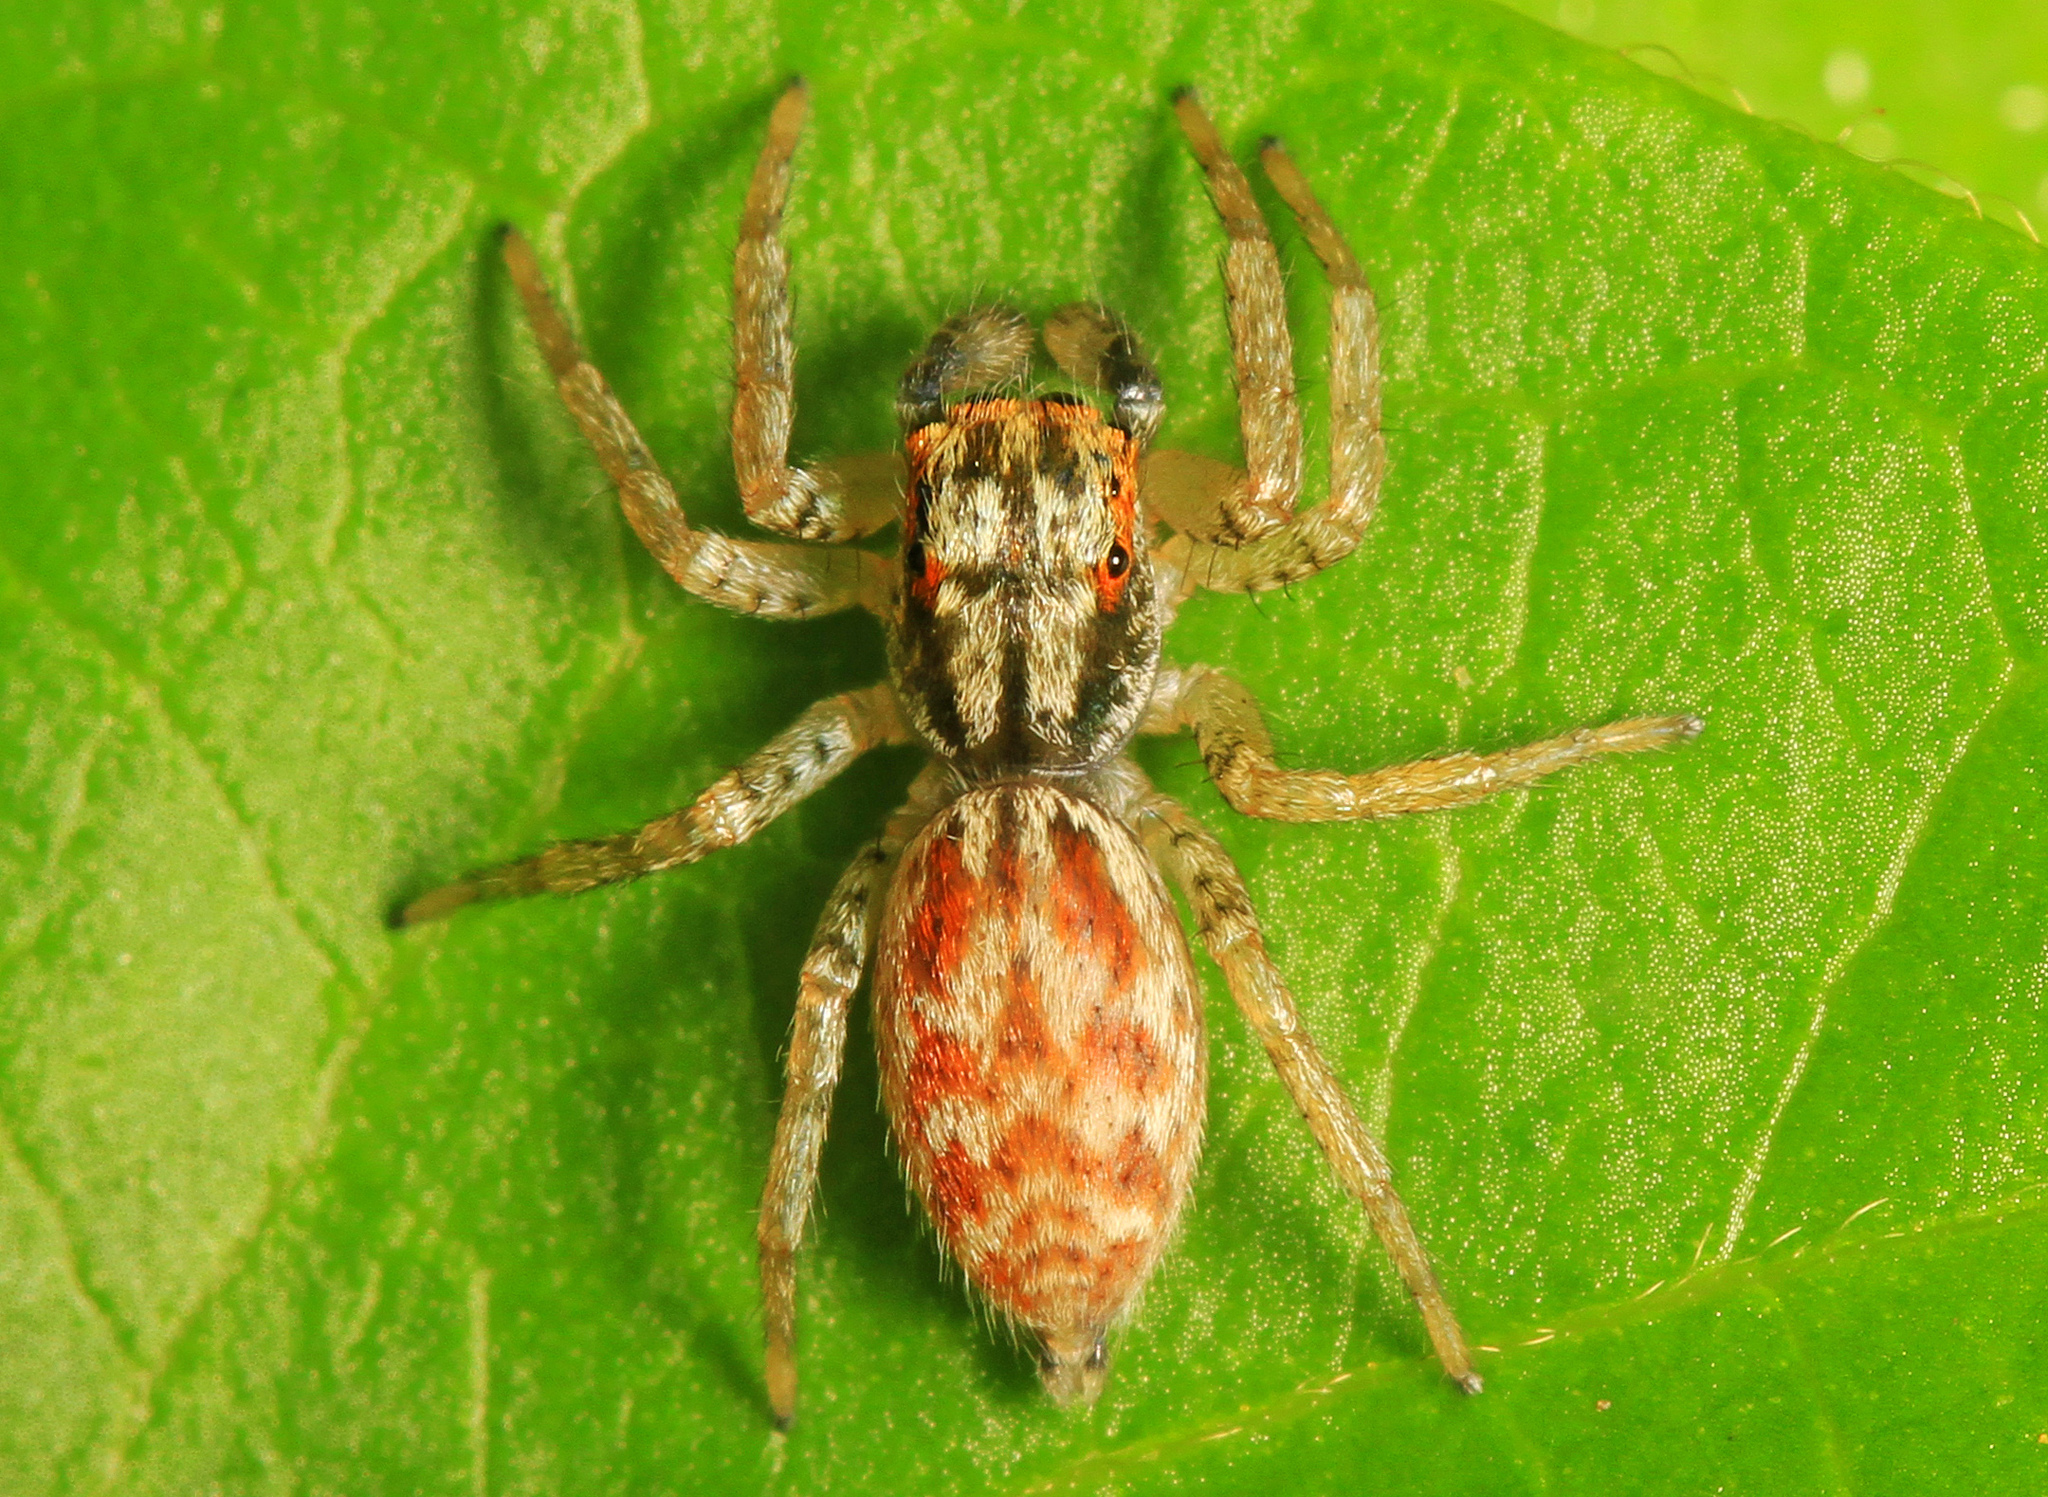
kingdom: Animalia
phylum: Arthropoda
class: Arachnida
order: Araneae
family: Salticidae
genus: Maevia
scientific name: Maevia inclemens
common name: Dimorphic jumper
